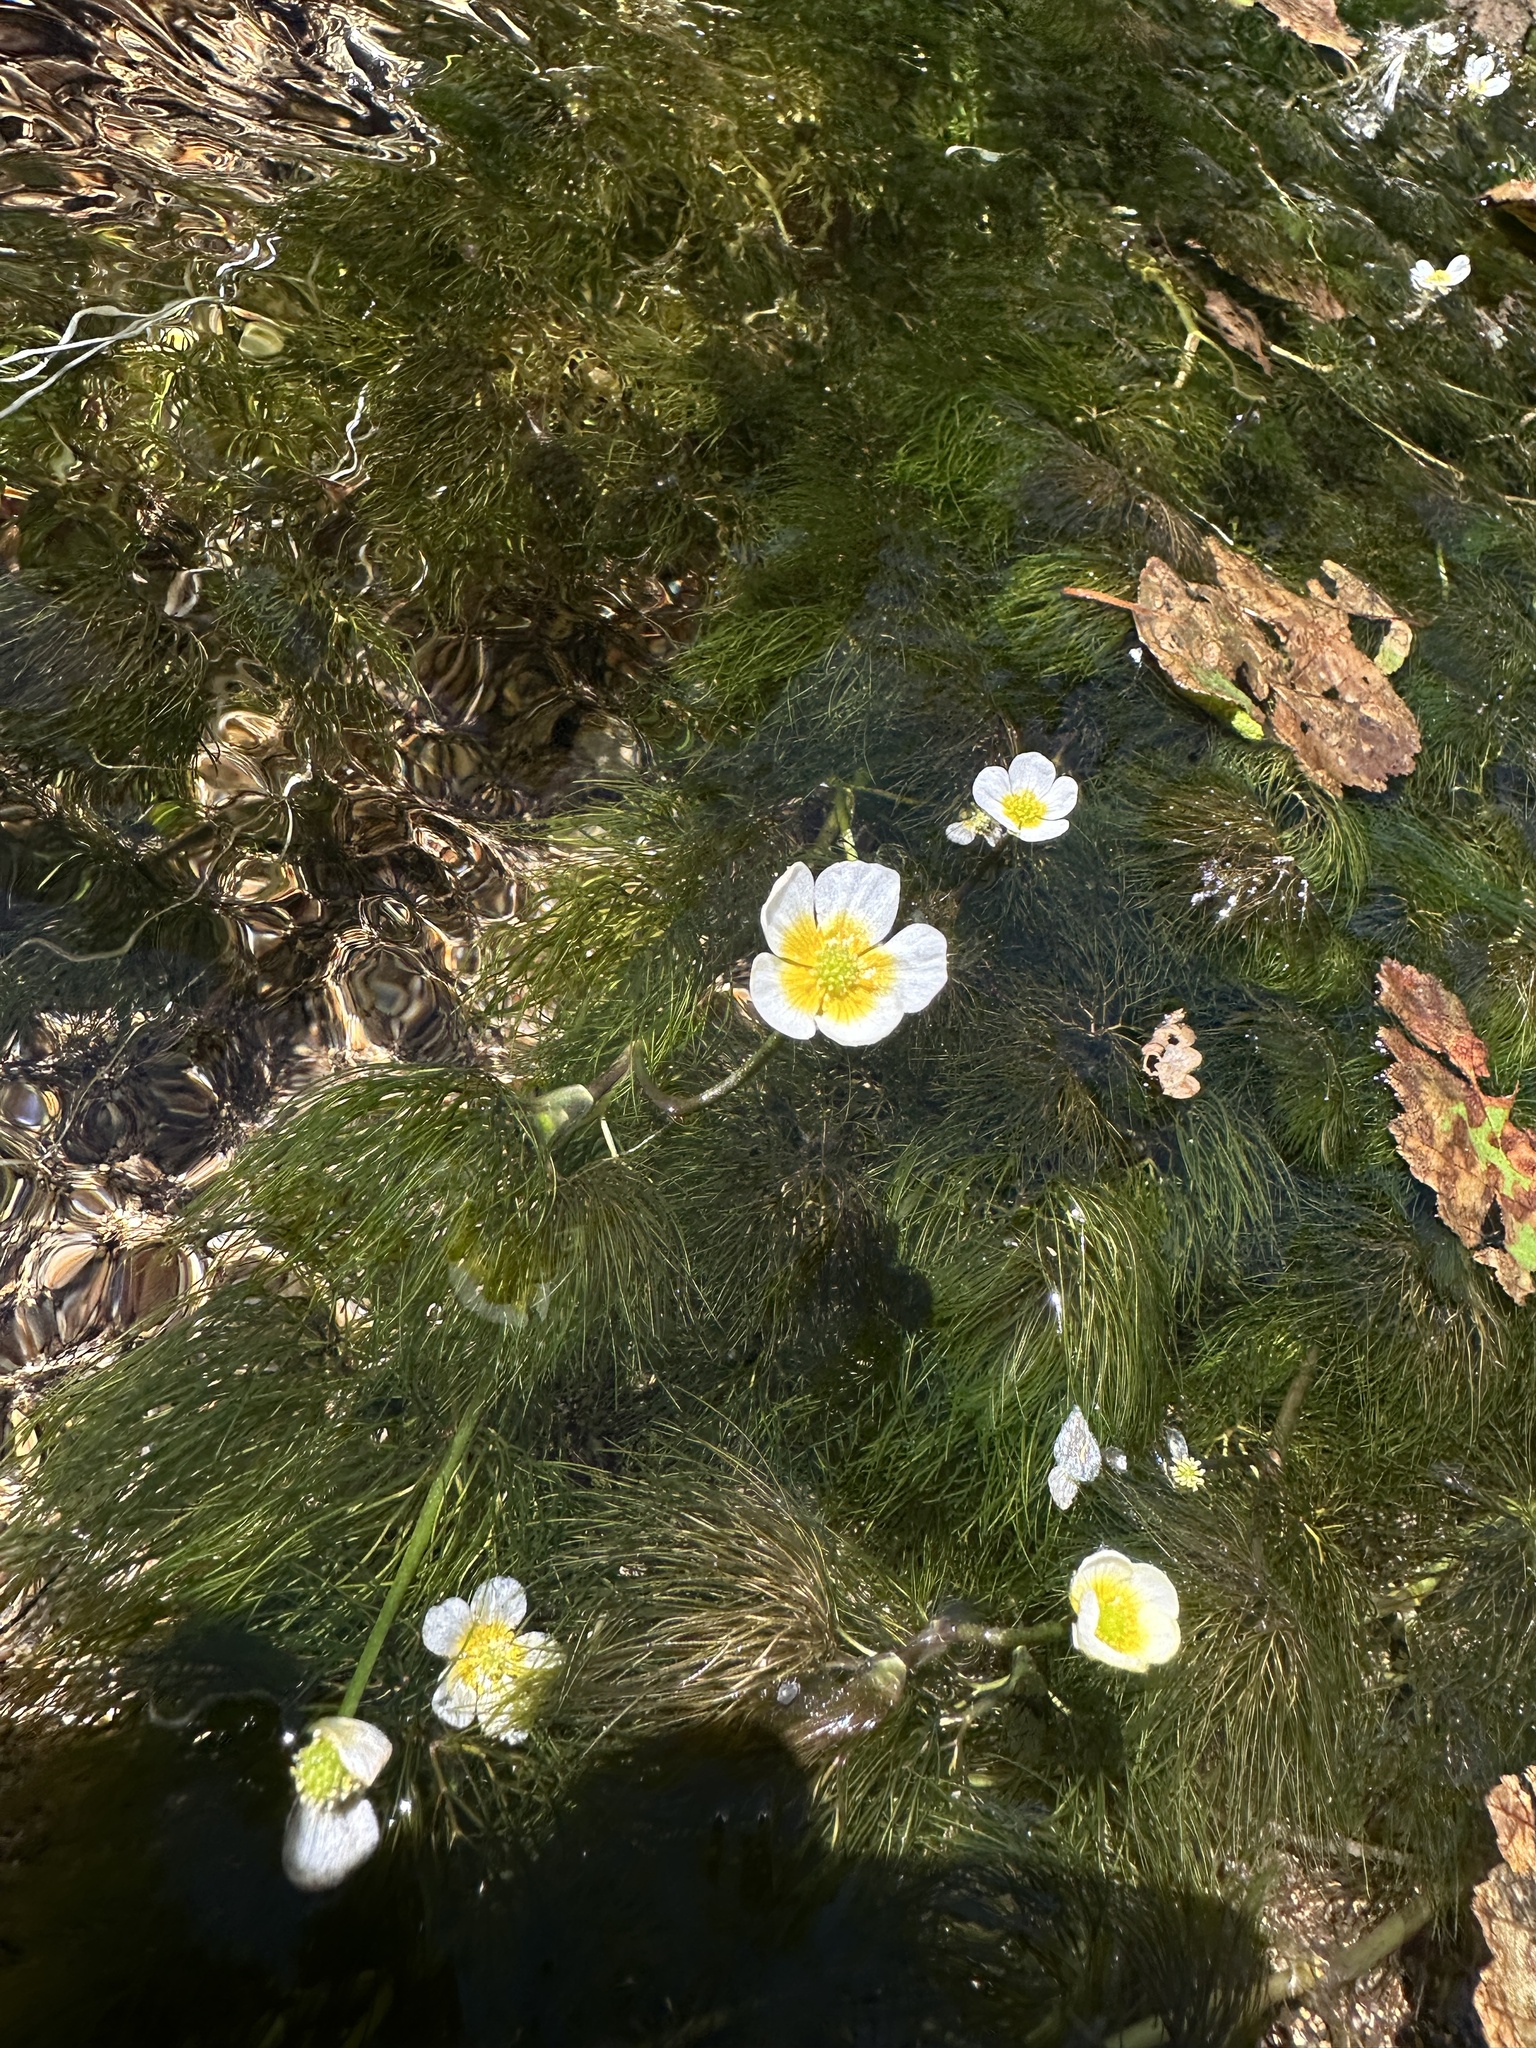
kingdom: Plantae
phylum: Tracheophyta
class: Magnoliopsida
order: Ranunculales
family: Ranunculaceae
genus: Ranunculus
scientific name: Ranunculus aquatilis
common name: Common water-crowfoot
